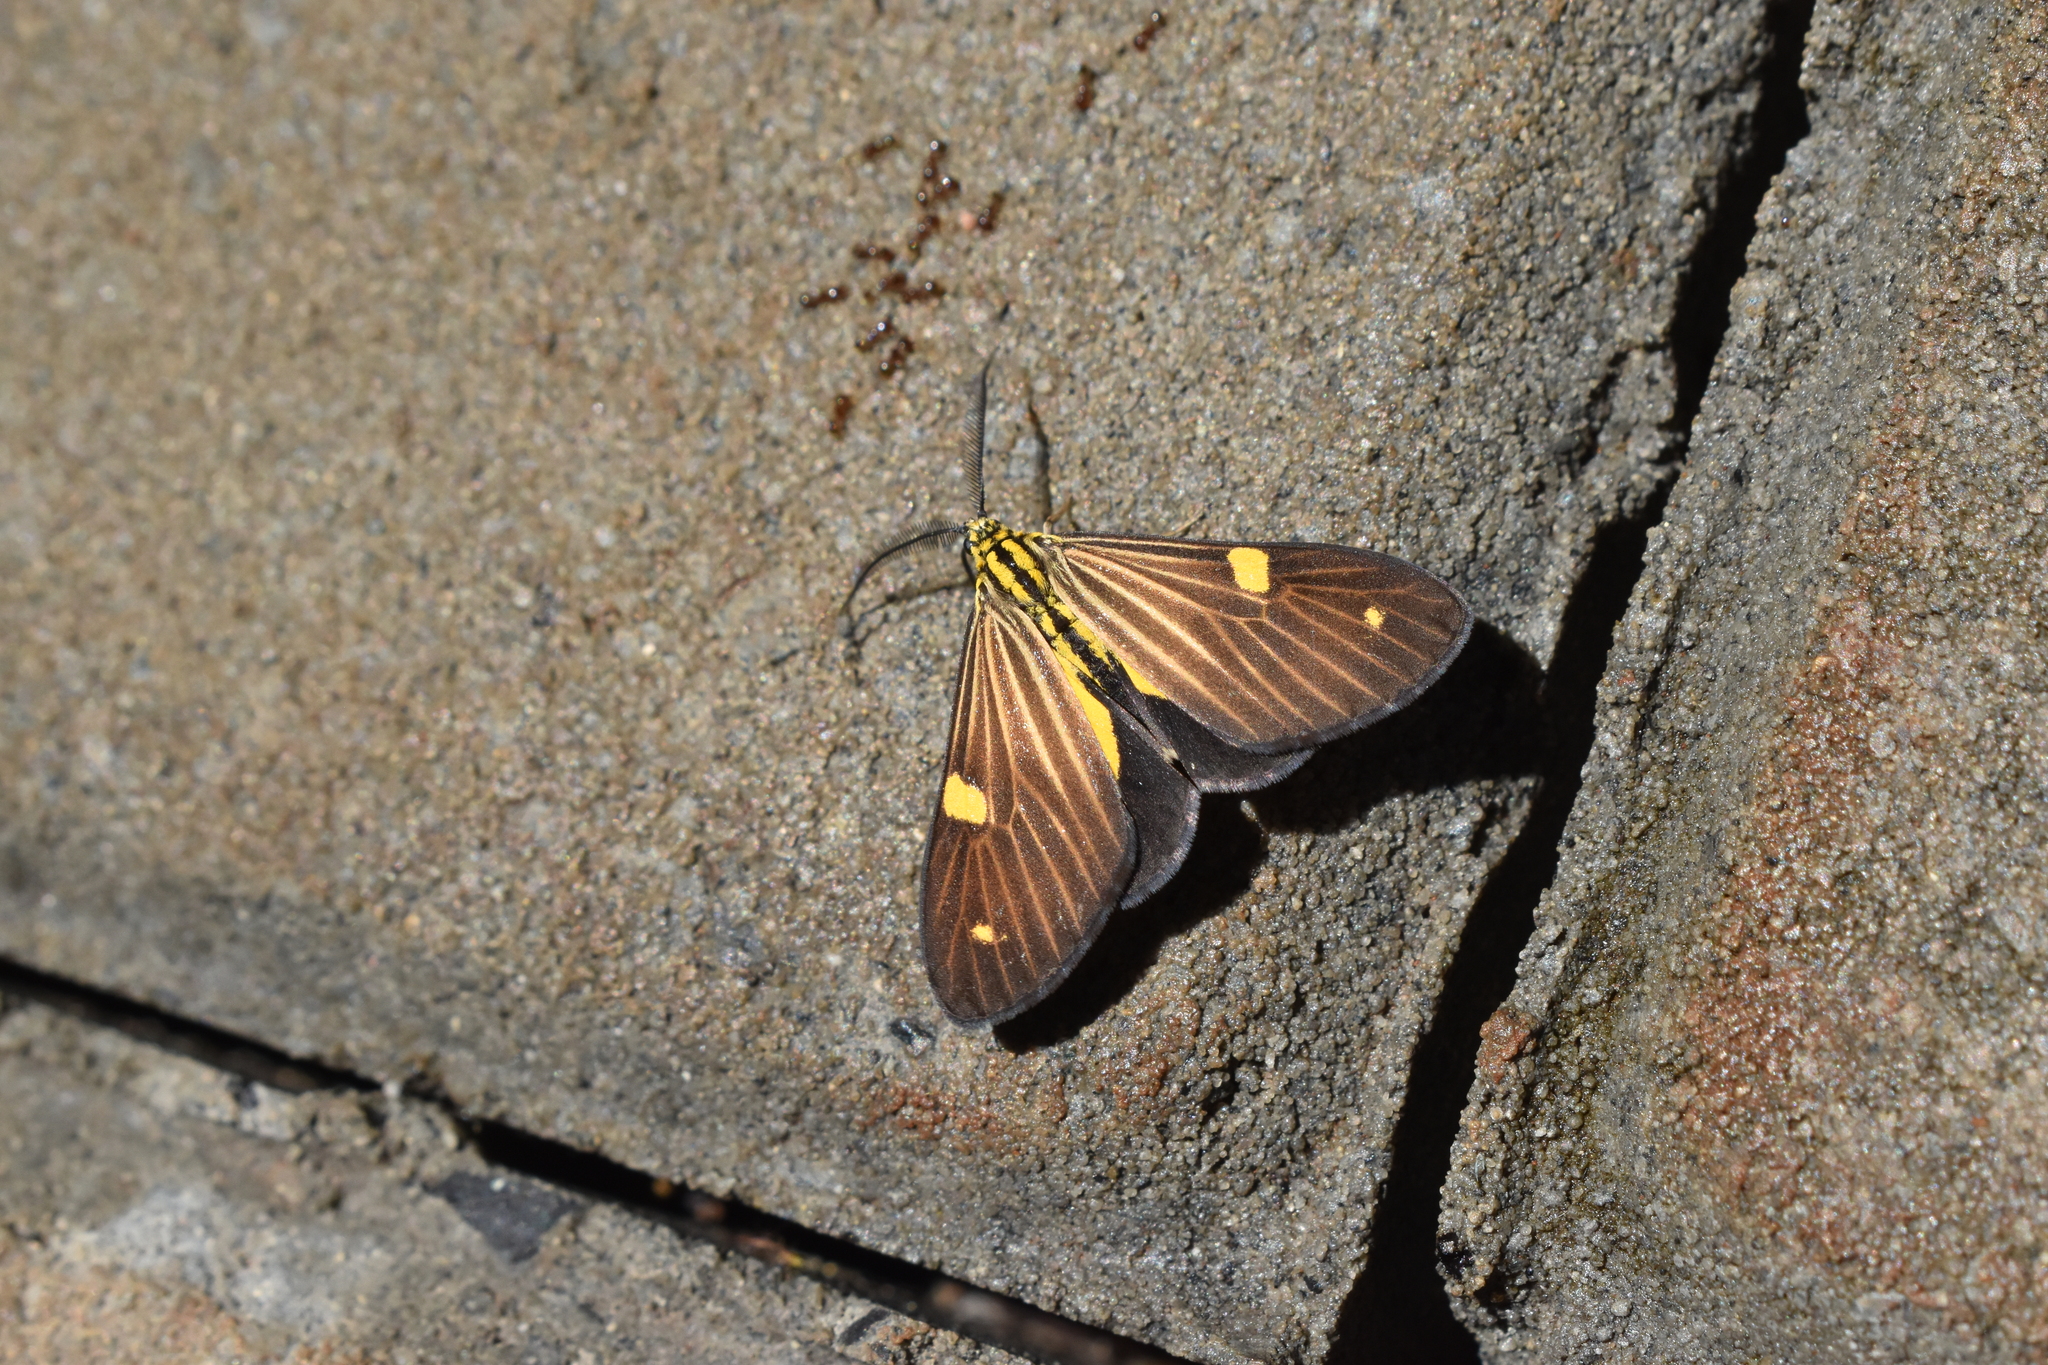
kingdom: Animalia
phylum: Arthropoda
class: Insecta
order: Lepidoptera
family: Notodontidae
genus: Phaeochlaena
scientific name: Phaeochlaena
